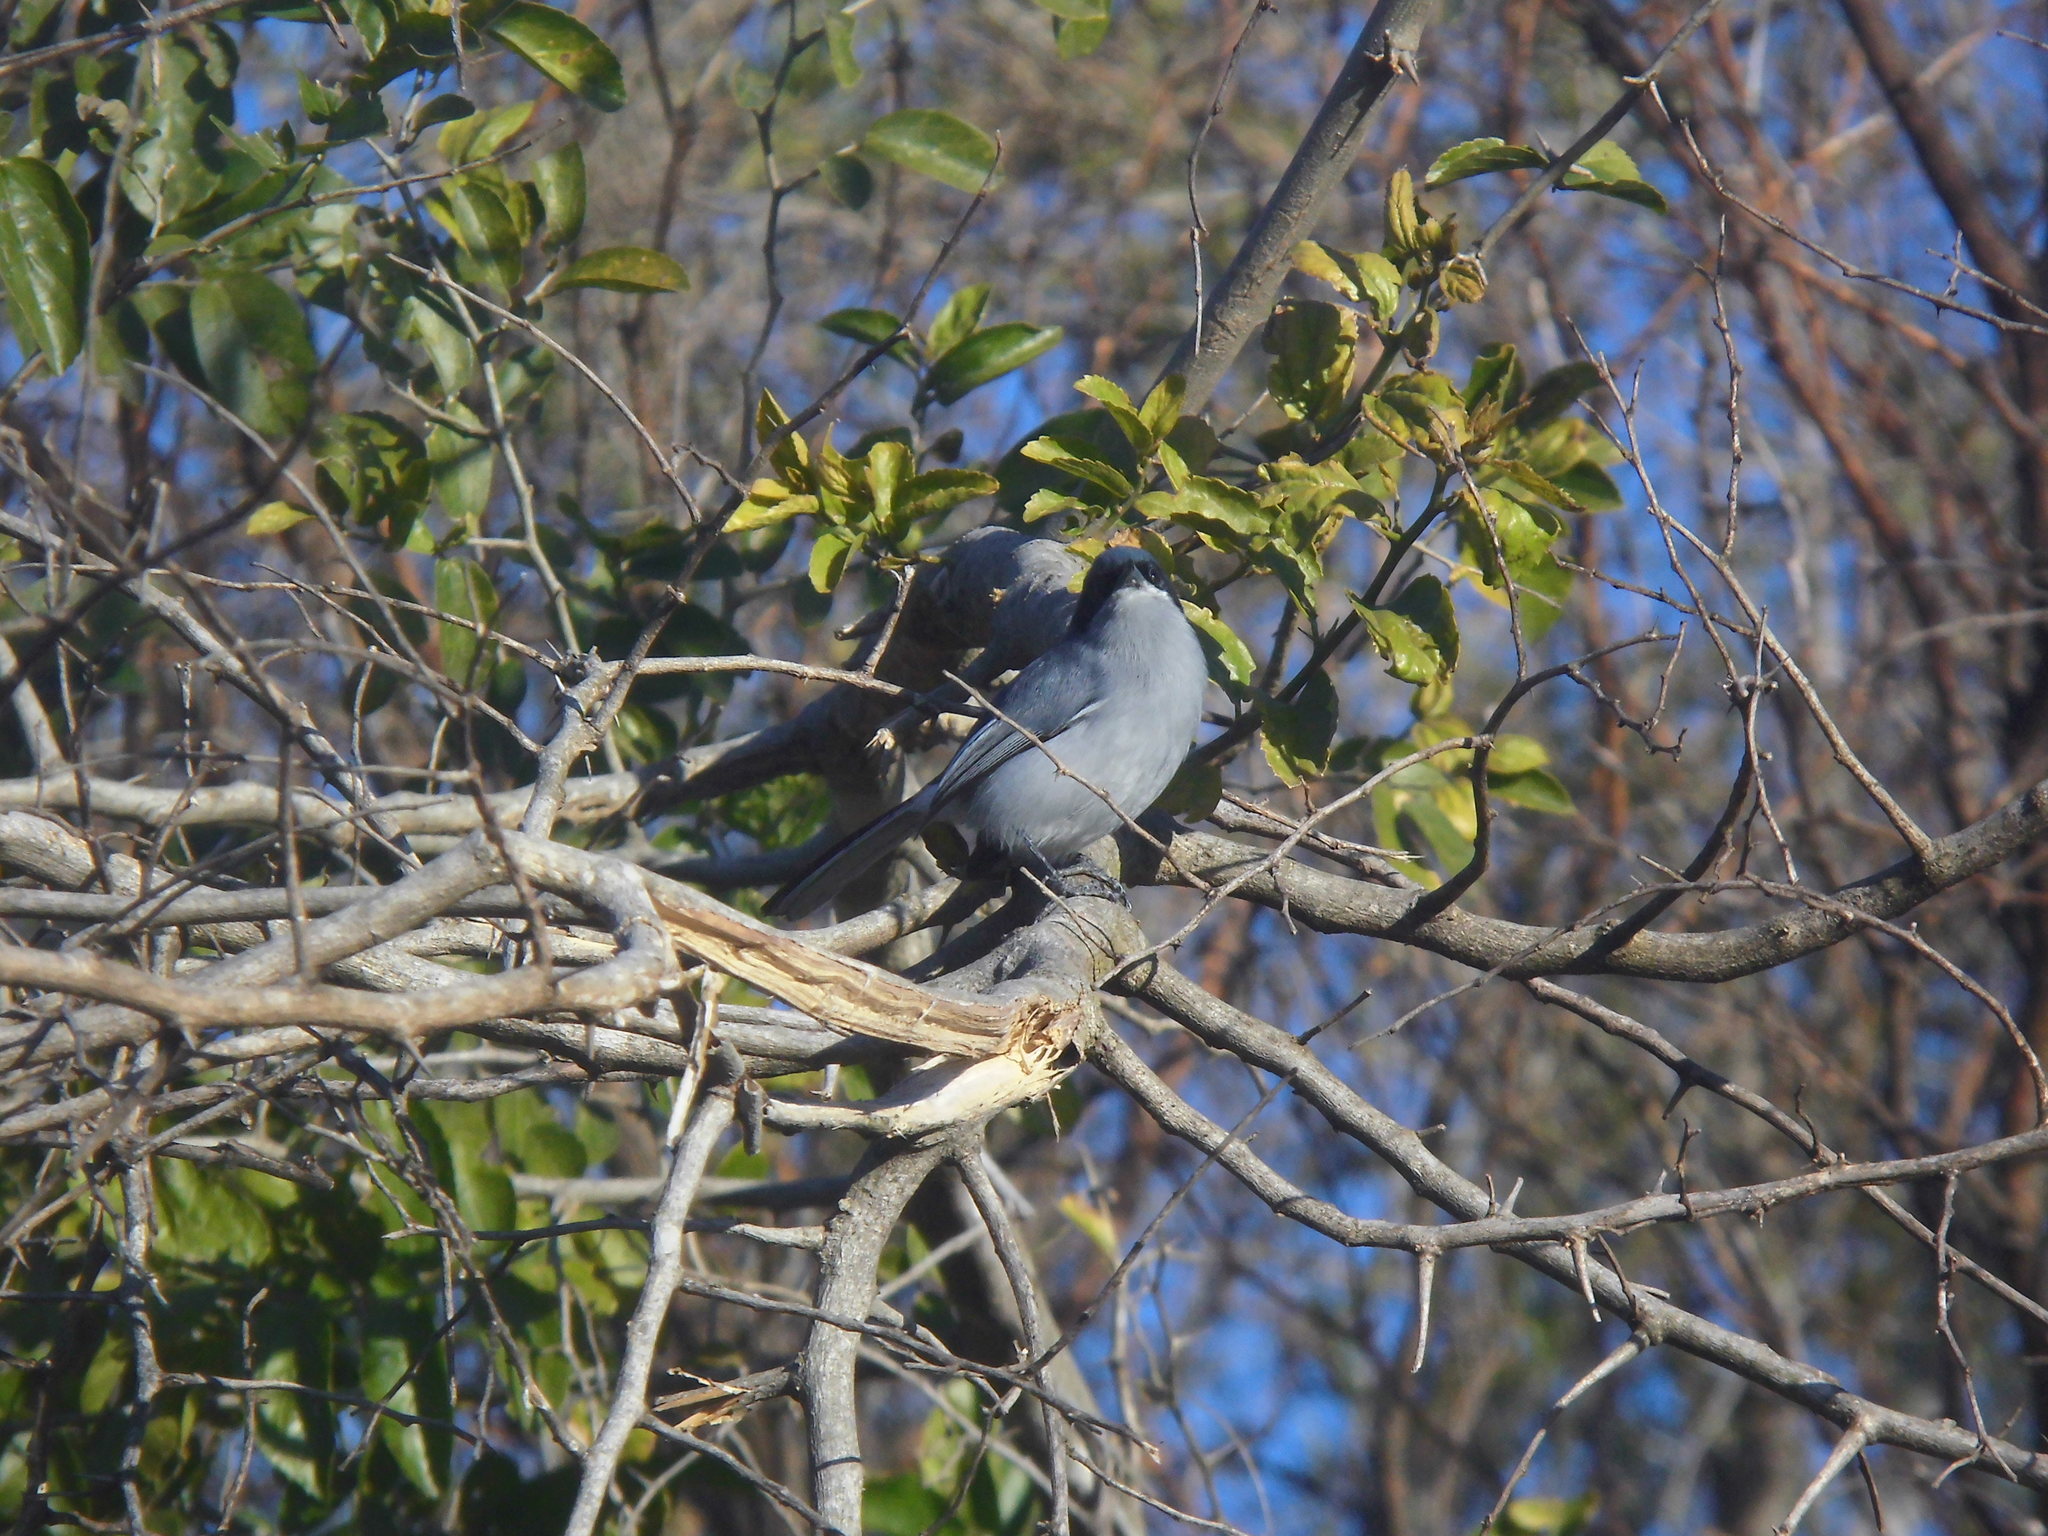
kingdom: Animalia
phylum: Chordata
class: Aves
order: Passeriformes
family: Polioptilidae
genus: Polioptila
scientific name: Polioptila dumicola
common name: Masked gnatcatcher
